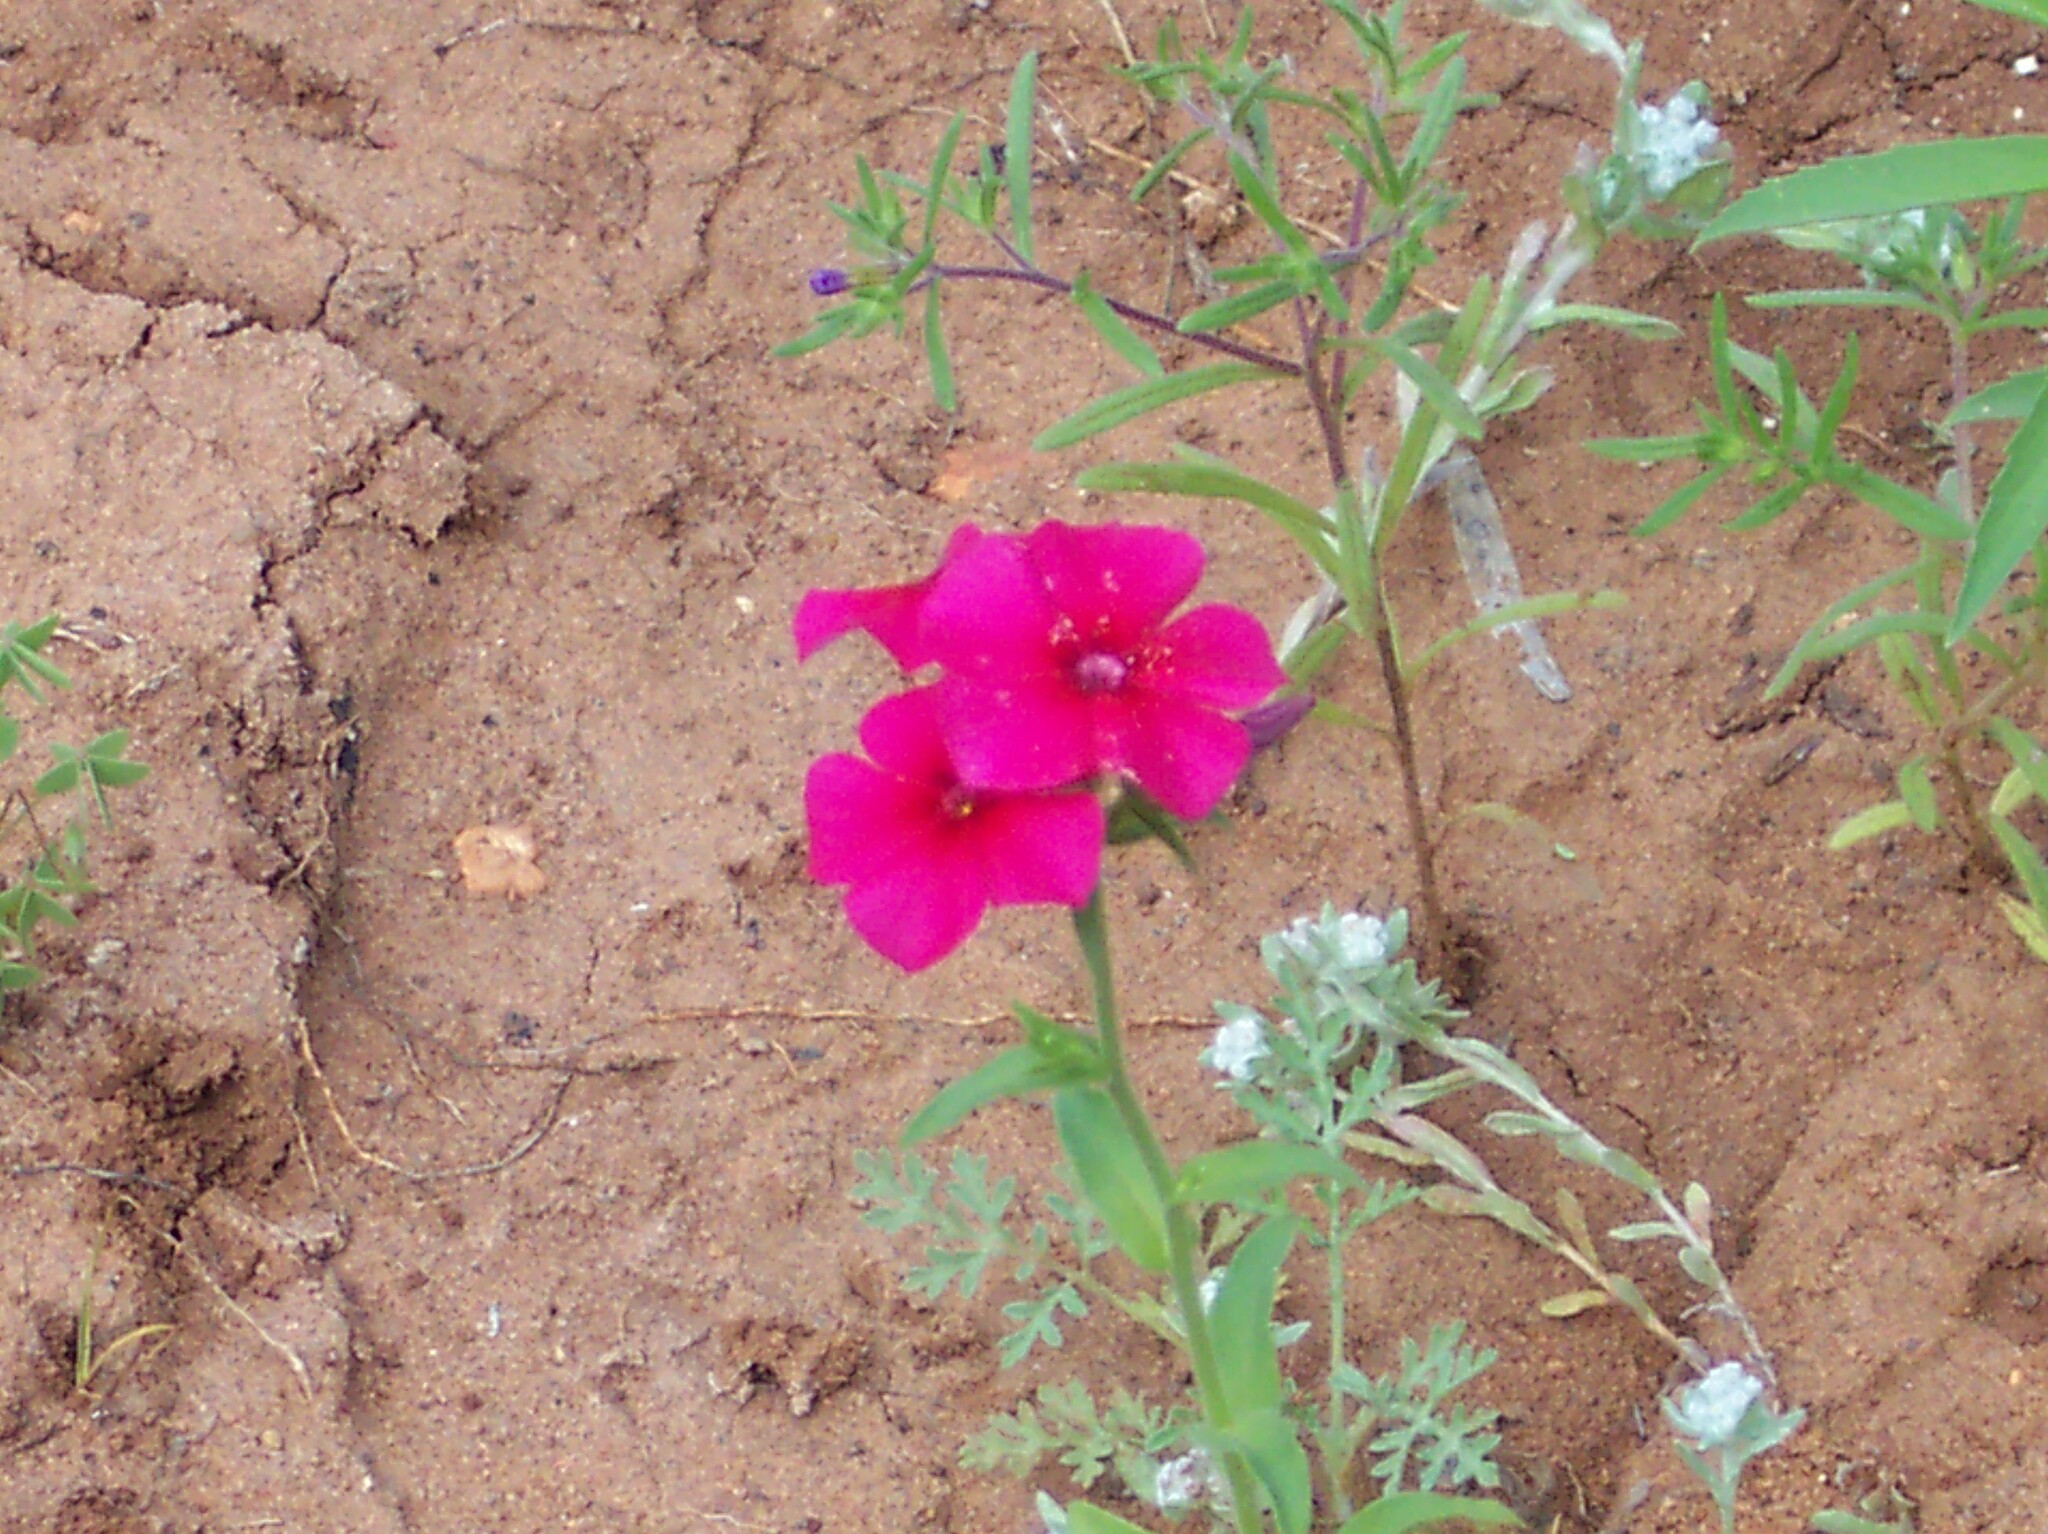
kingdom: Plantae
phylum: Tracheophyta
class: Magnoliopsida
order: Ericales
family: Polemoniaceae
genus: Phlox
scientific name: Phlox drummondii
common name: Drummond's phlox
